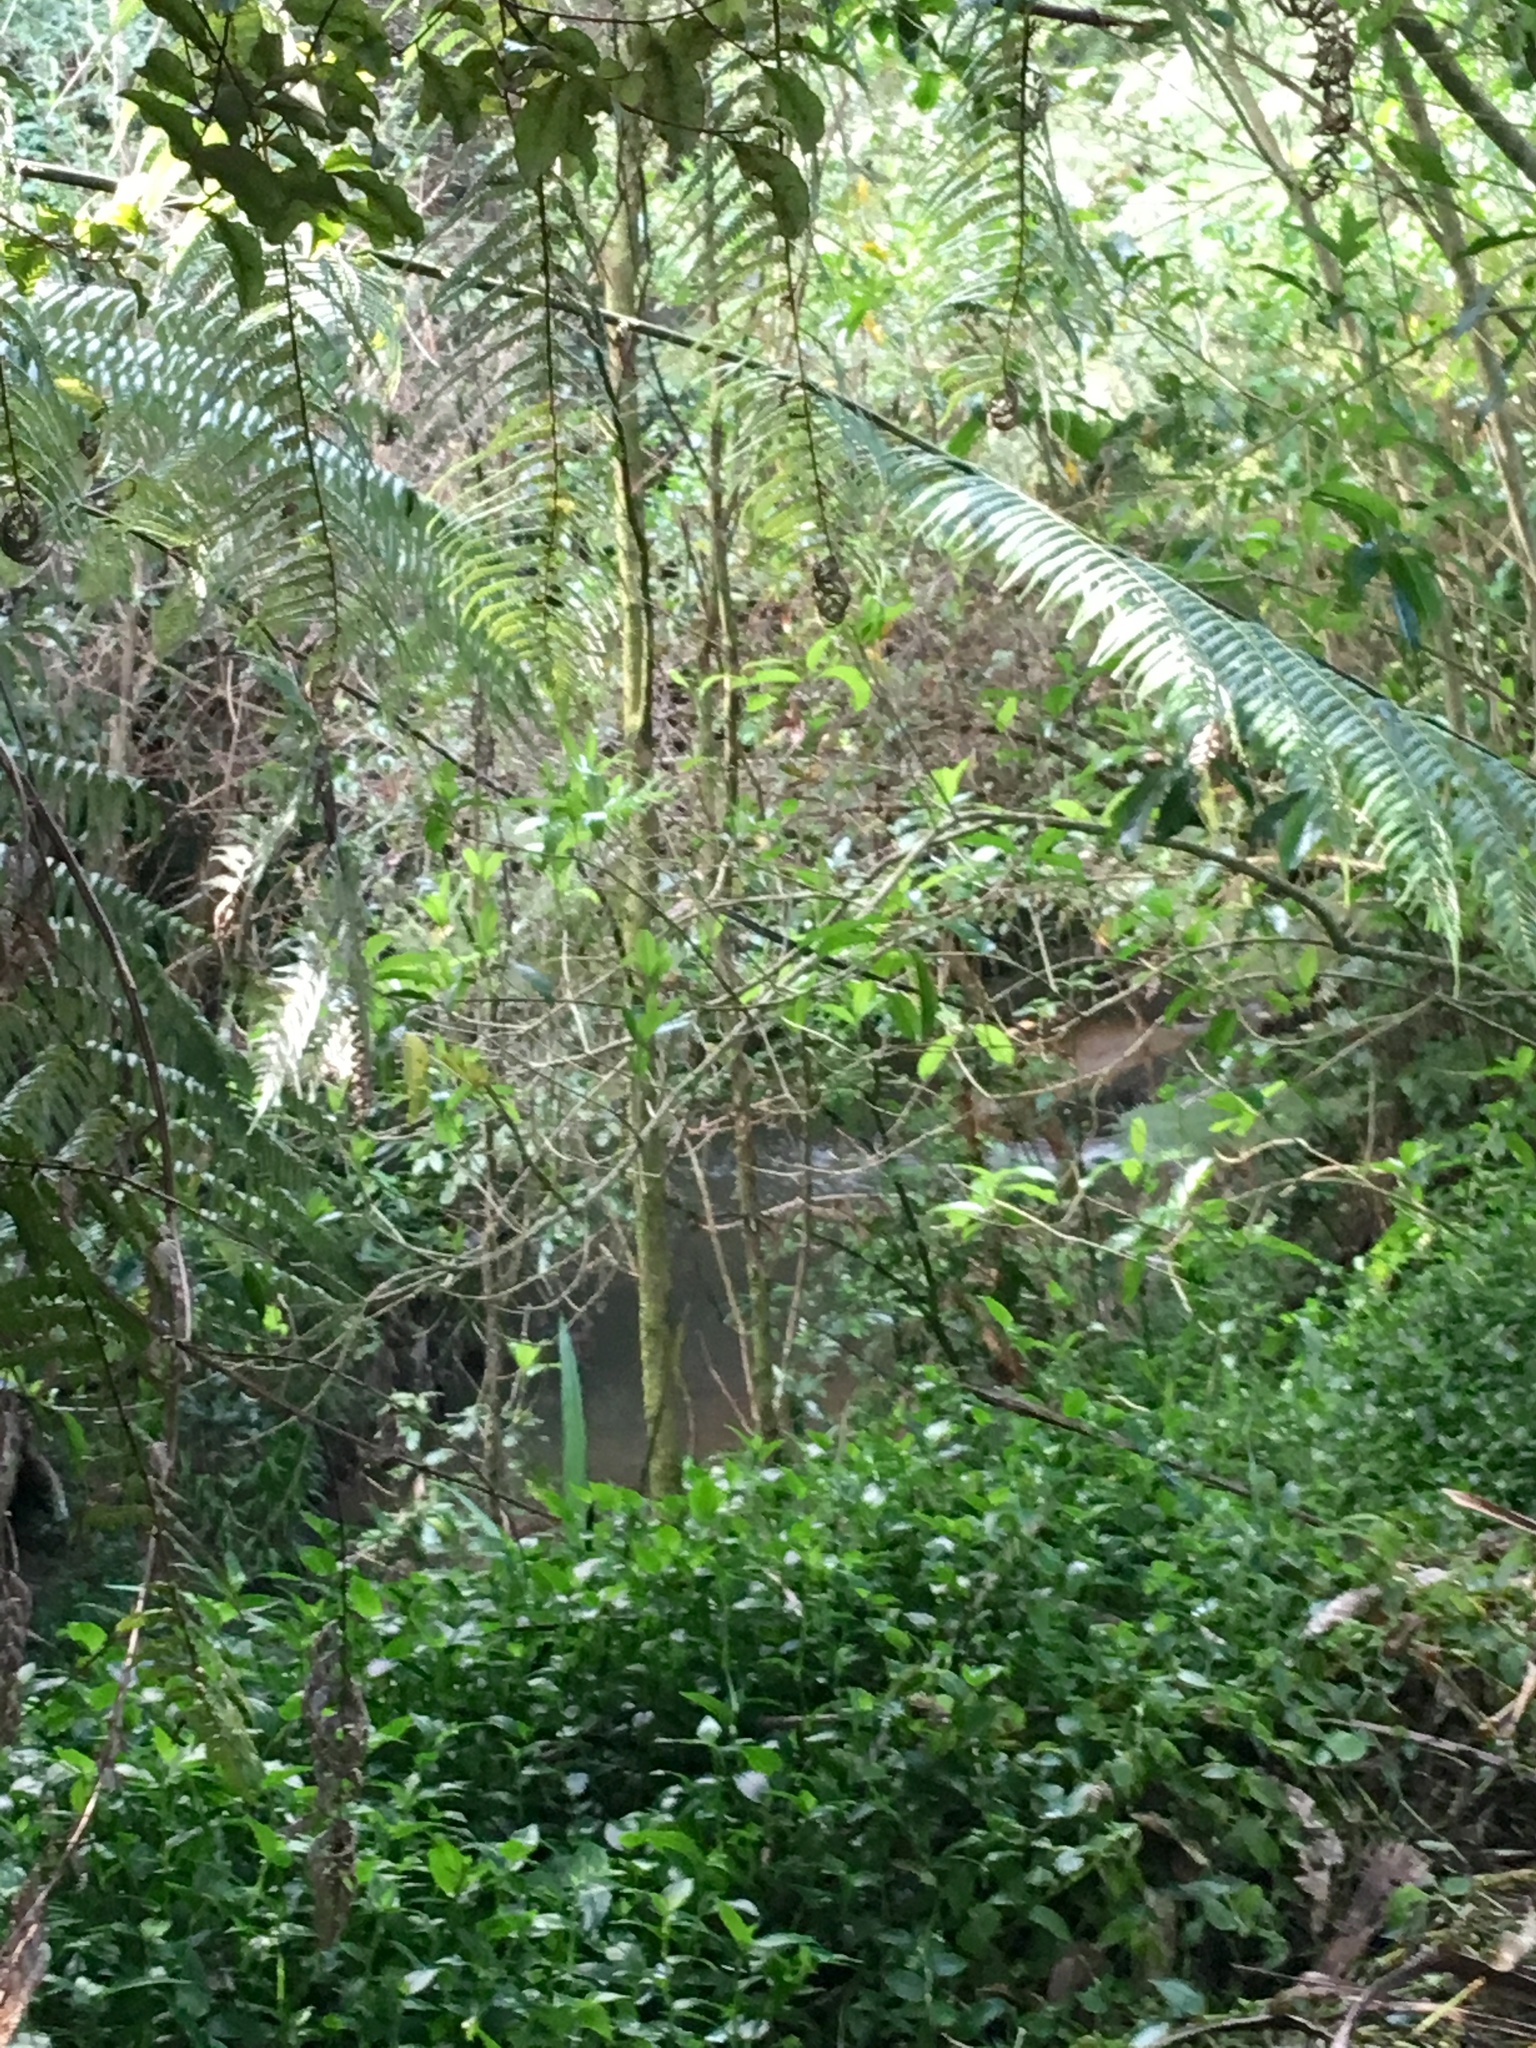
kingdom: Plantae
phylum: Tracheophyta
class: Liliopsida
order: Commelinales
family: Commelinaceae
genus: Tradescantia
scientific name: Tradescantia fluminensis
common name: Wandering-jew
